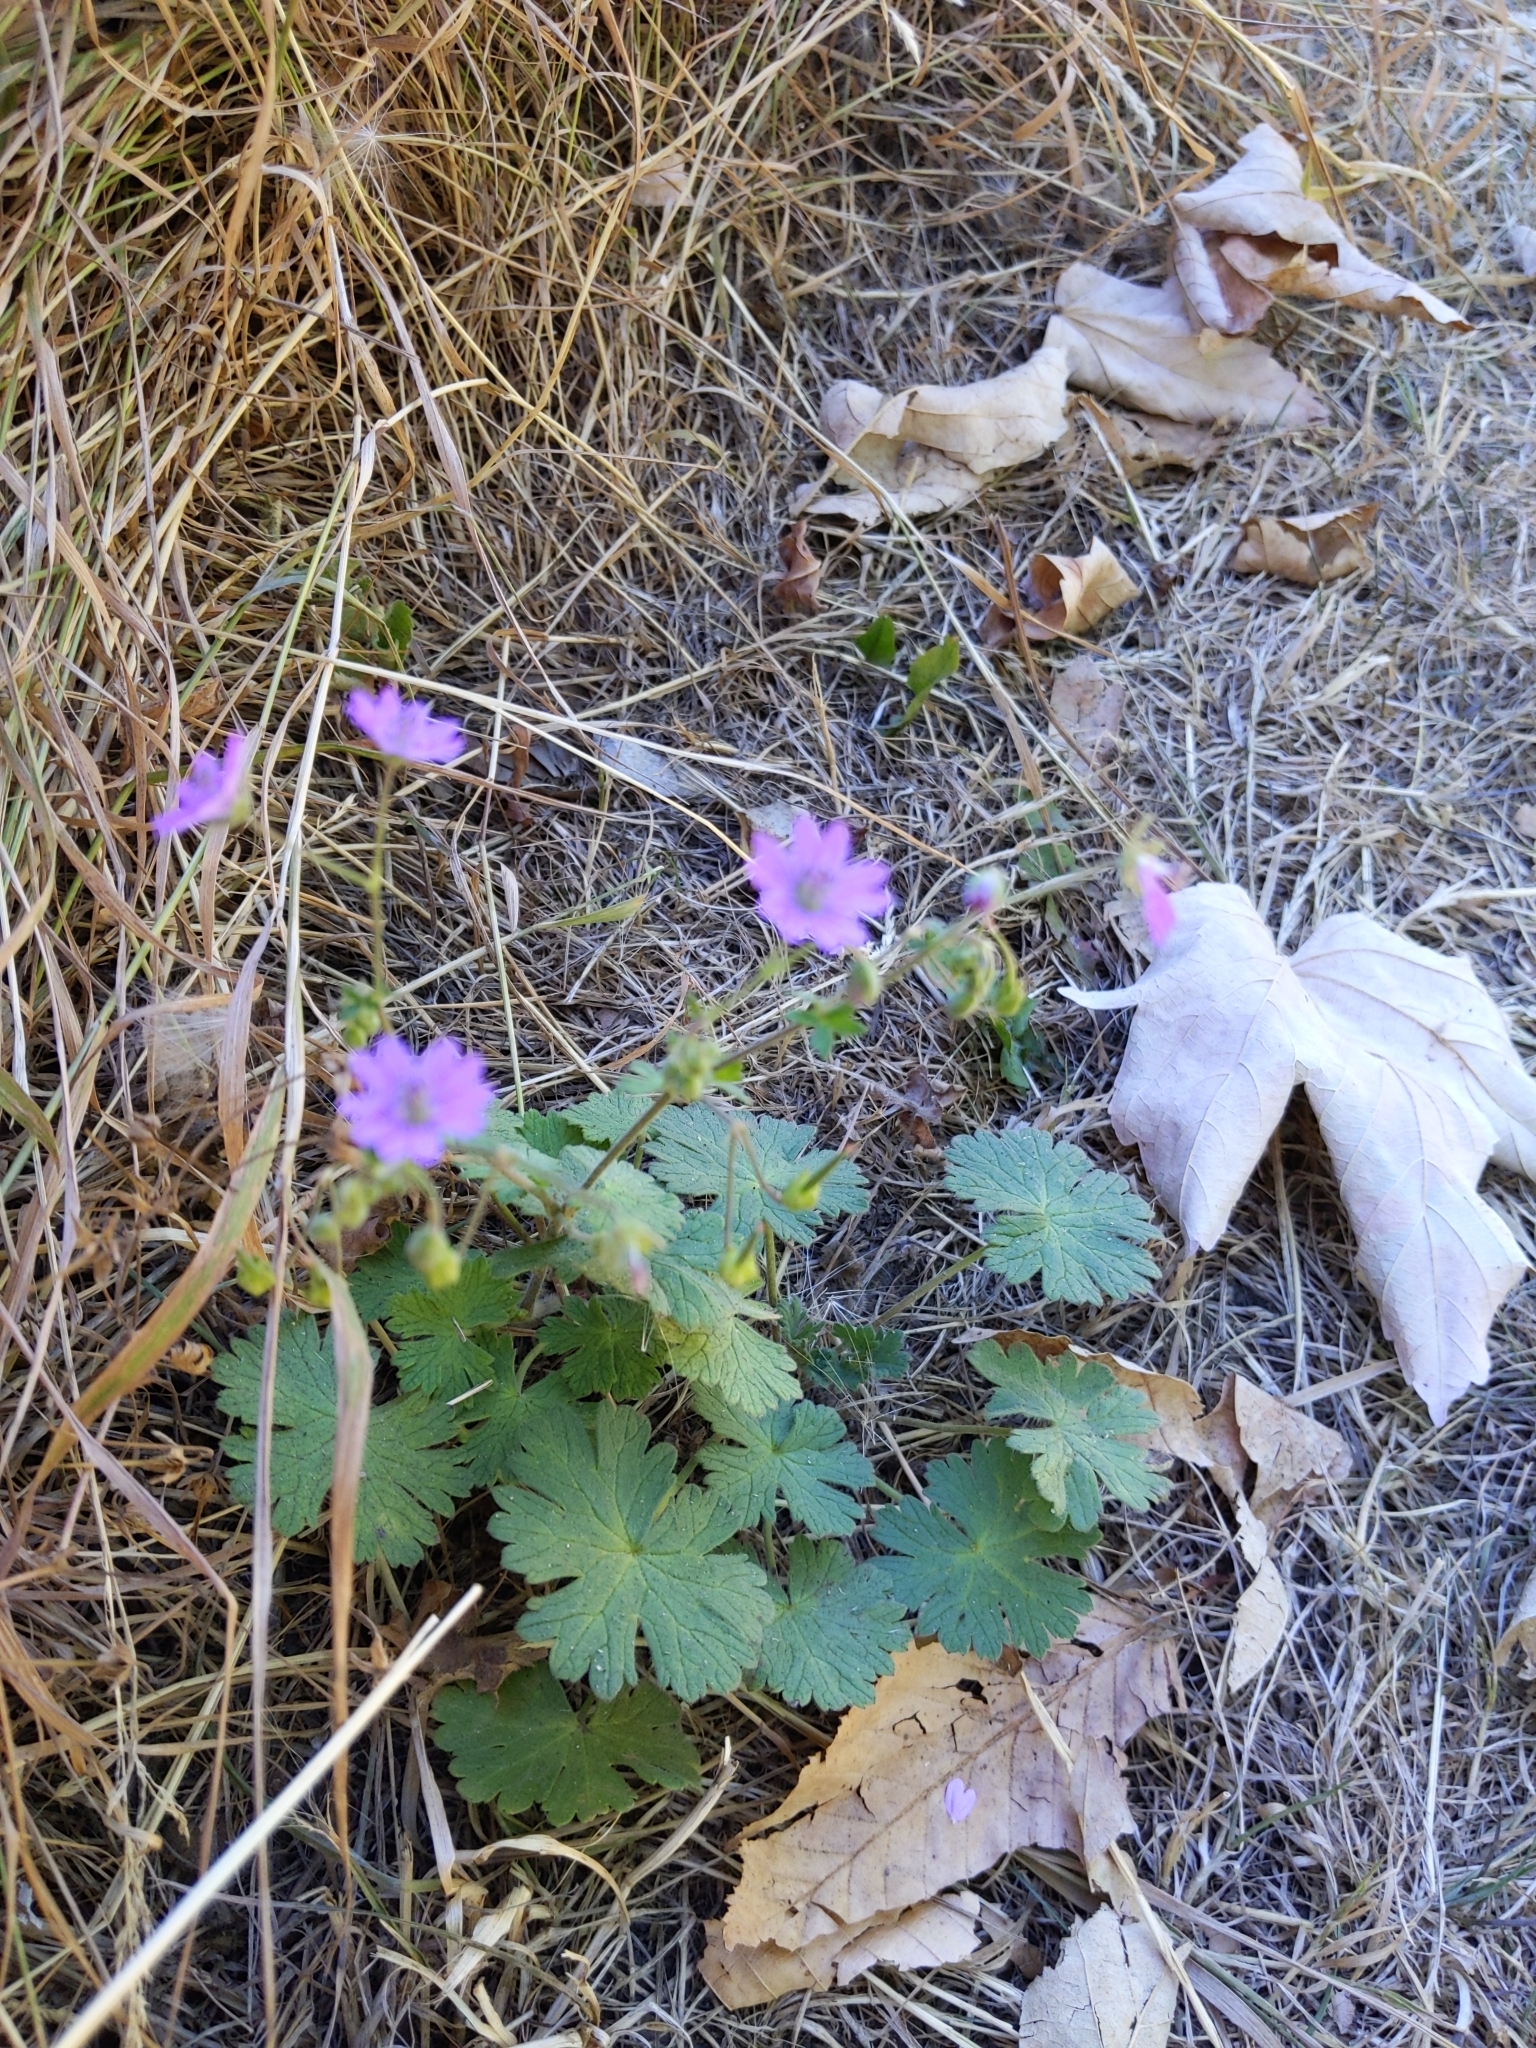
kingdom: Plantae
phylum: Tracheophyta
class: Magnoliopsida
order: Geraniales
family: Geraniaceae
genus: Geranium
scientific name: Geranium pyrenaicum
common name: Hedgerow crane's-bill
